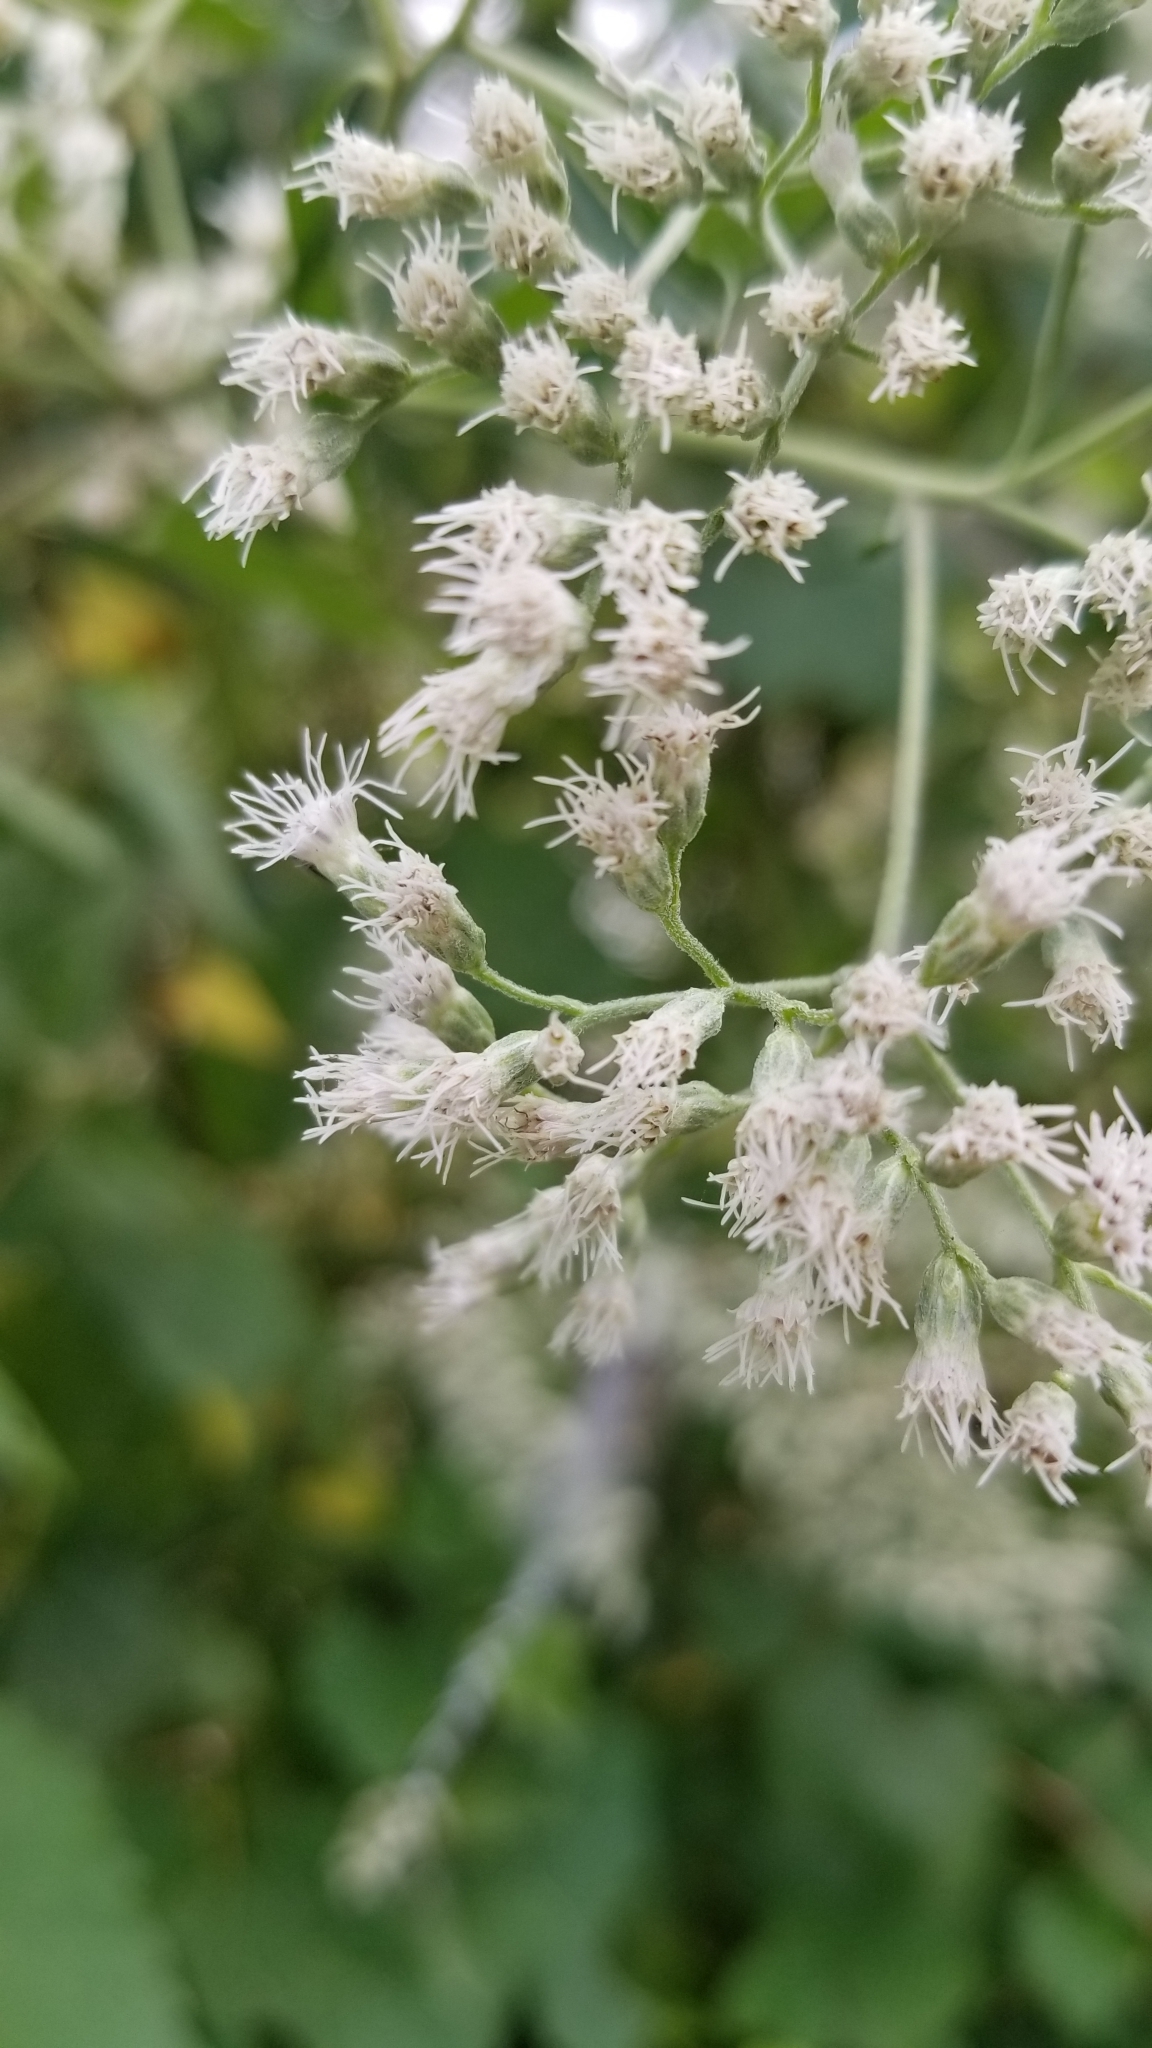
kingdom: Plantae
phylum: Tracheophyta
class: Magnoliopsida
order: Asterales
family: Asteraceae
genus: Eupatorium
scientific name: Eupatorium serotinum
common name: Late boneset
